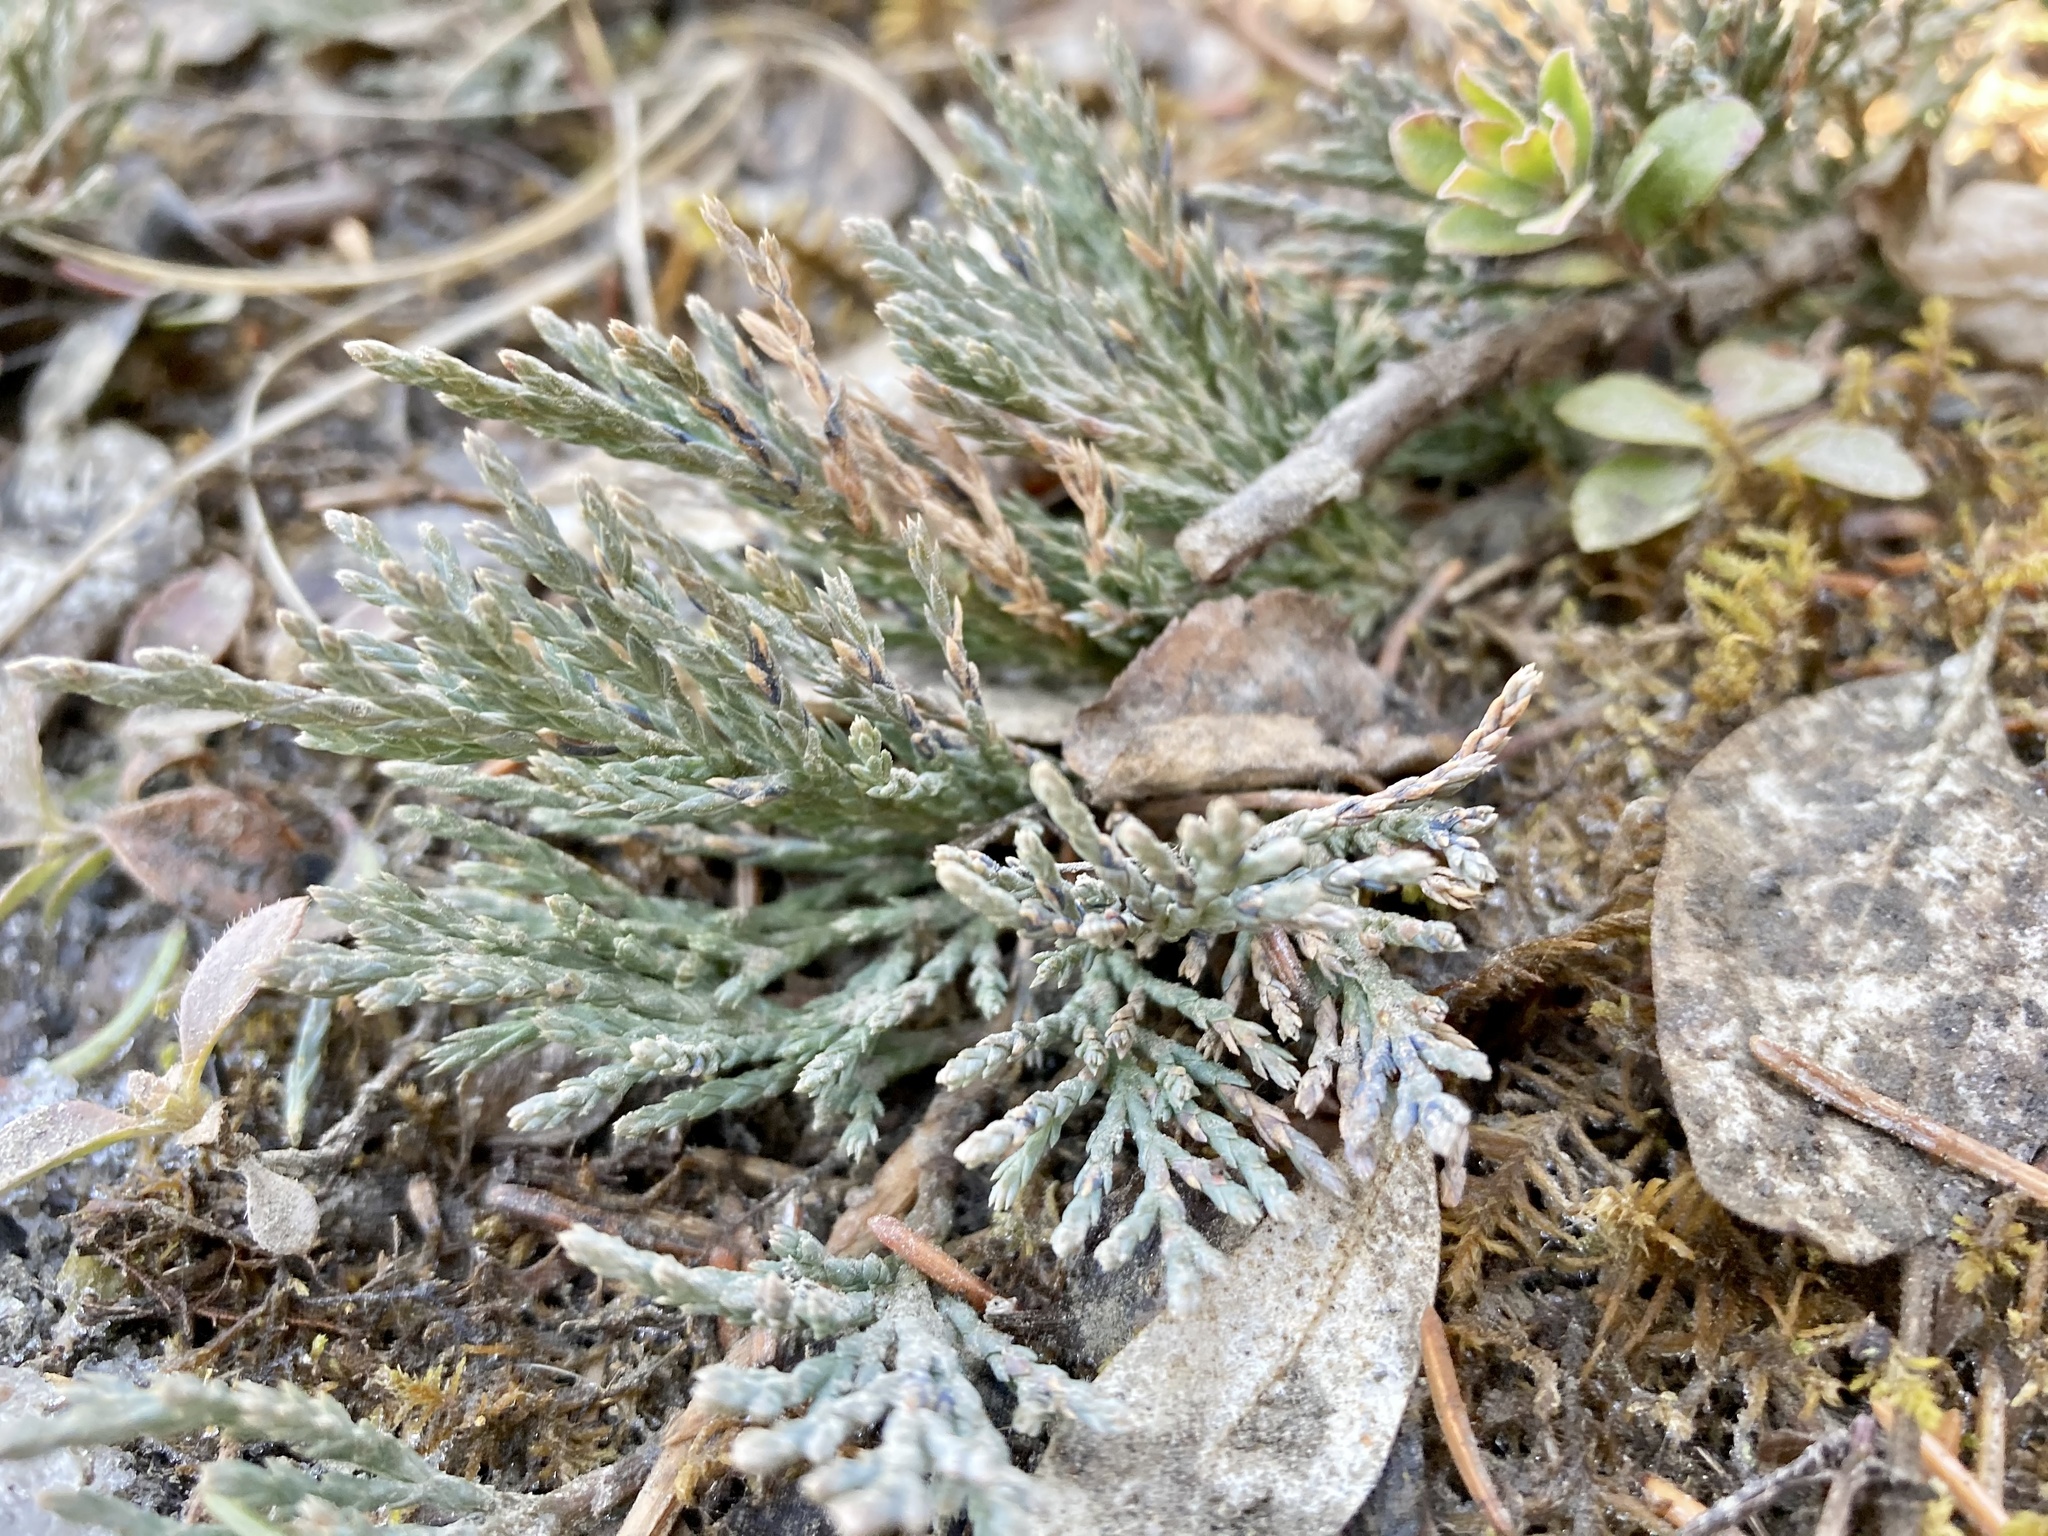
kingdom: Plantae
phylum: Tracheophyta
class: Pinopsida
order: Pinales
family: Cupressaceae
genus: Juniperus
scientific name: Juniperus horizontalis
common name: Creeping juniper
